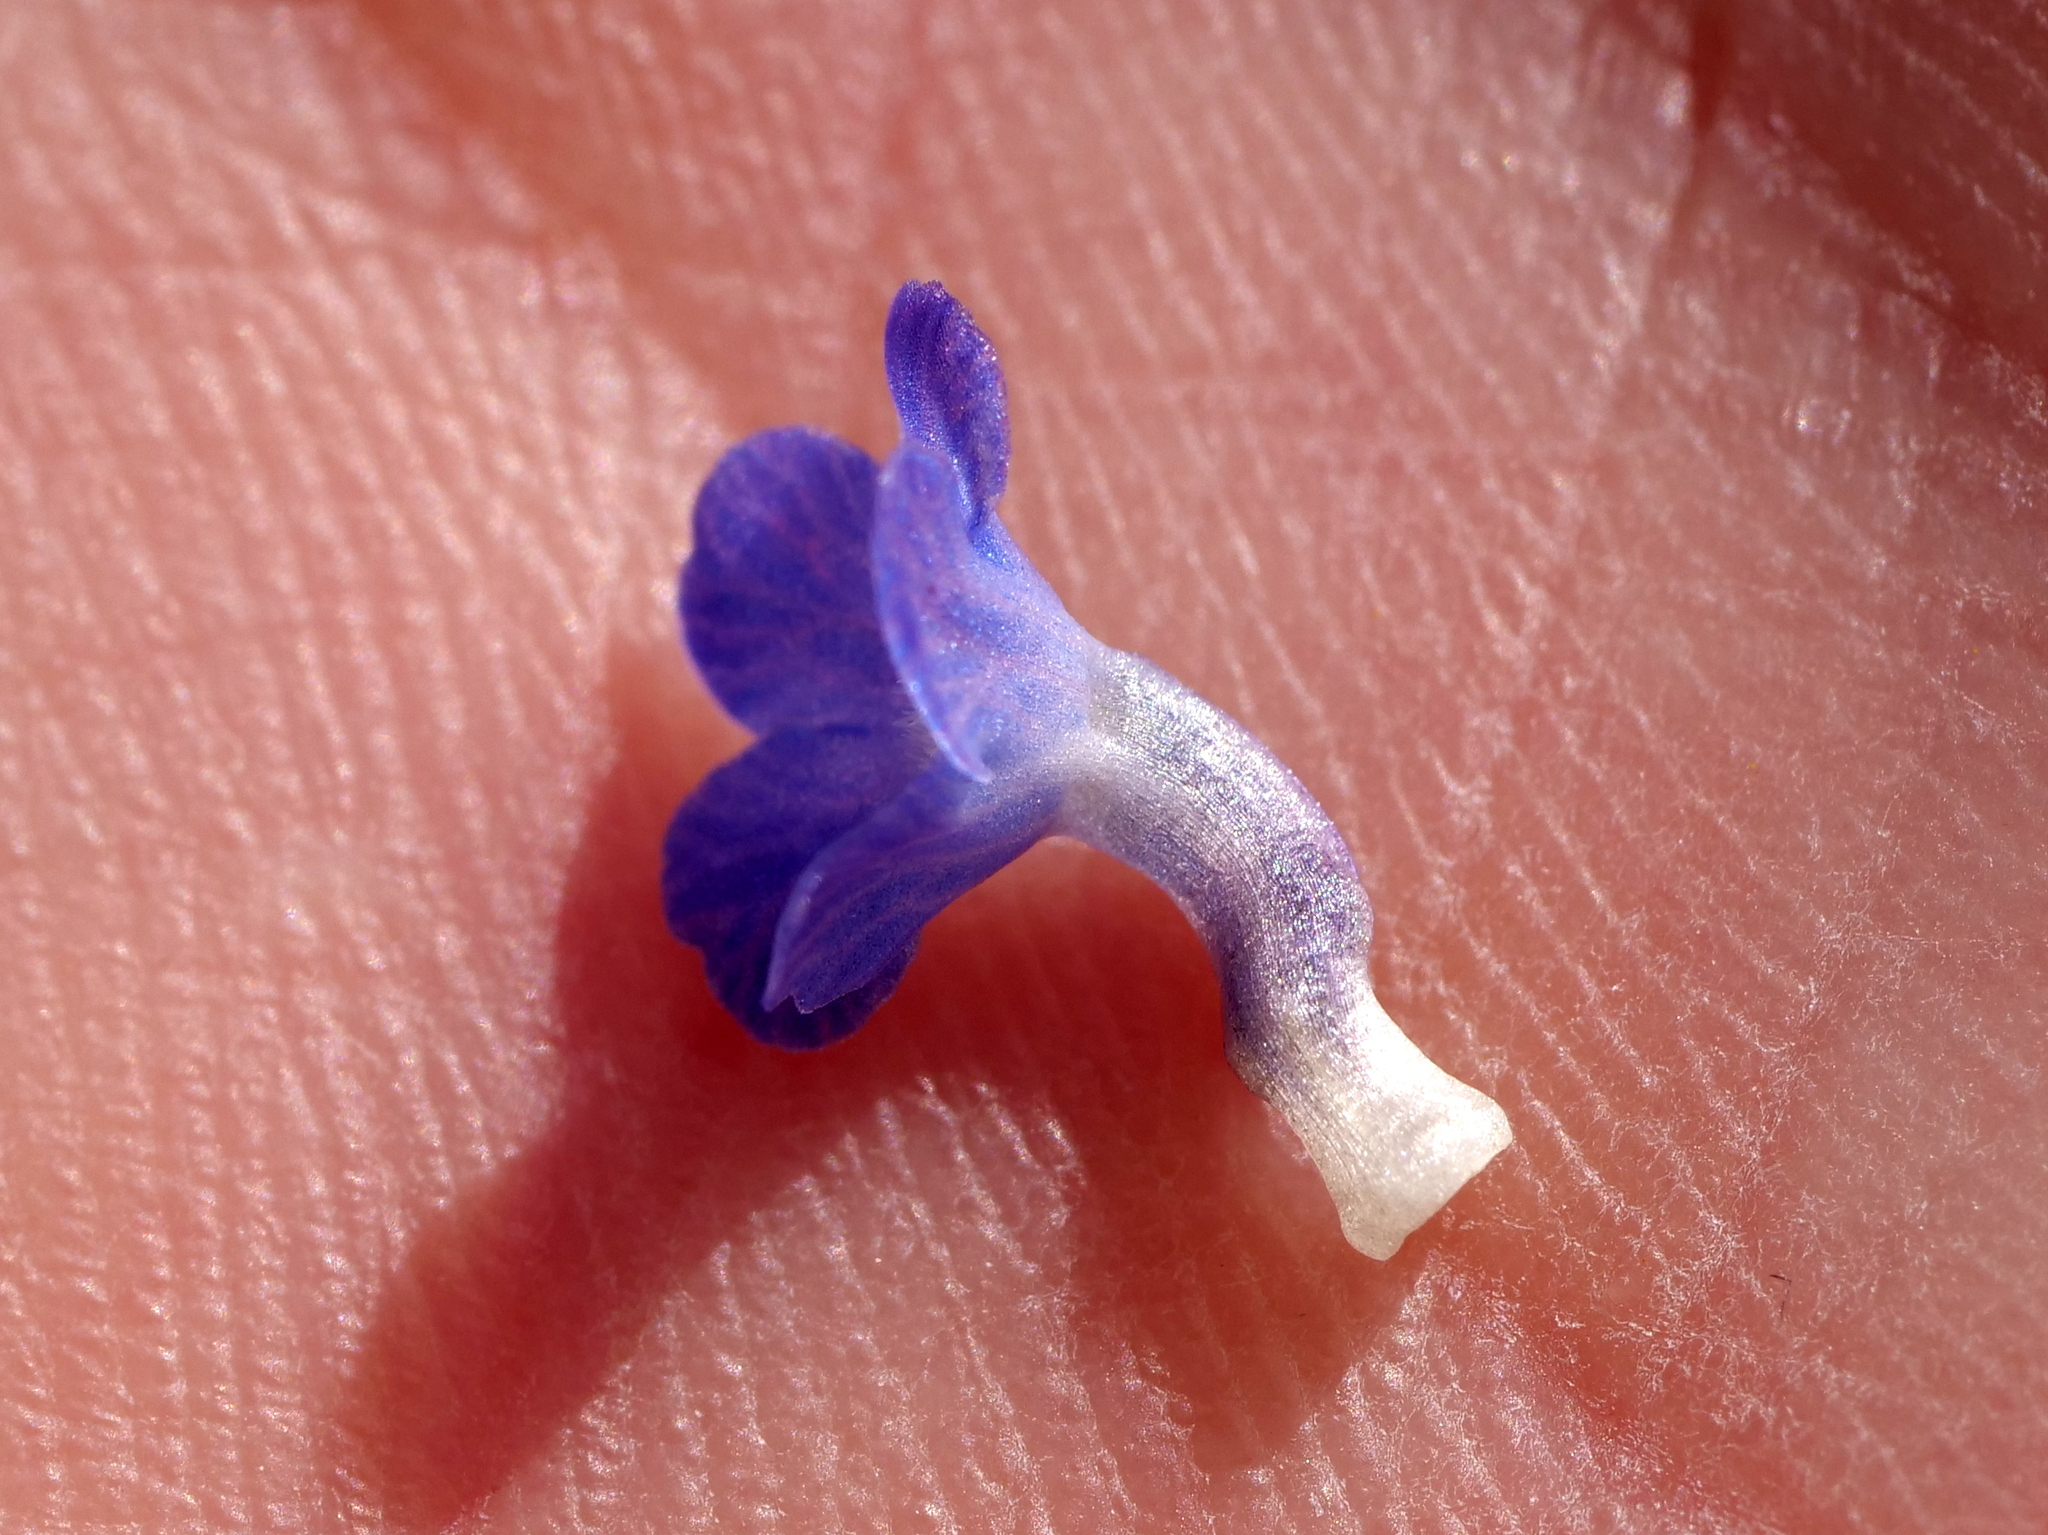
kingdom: Plantae
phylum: Tracheophyta
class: Magnoliopsida
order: Boraginales
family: Boraginaceae
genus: Lycopsis
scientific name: Lycopsis arvensis
